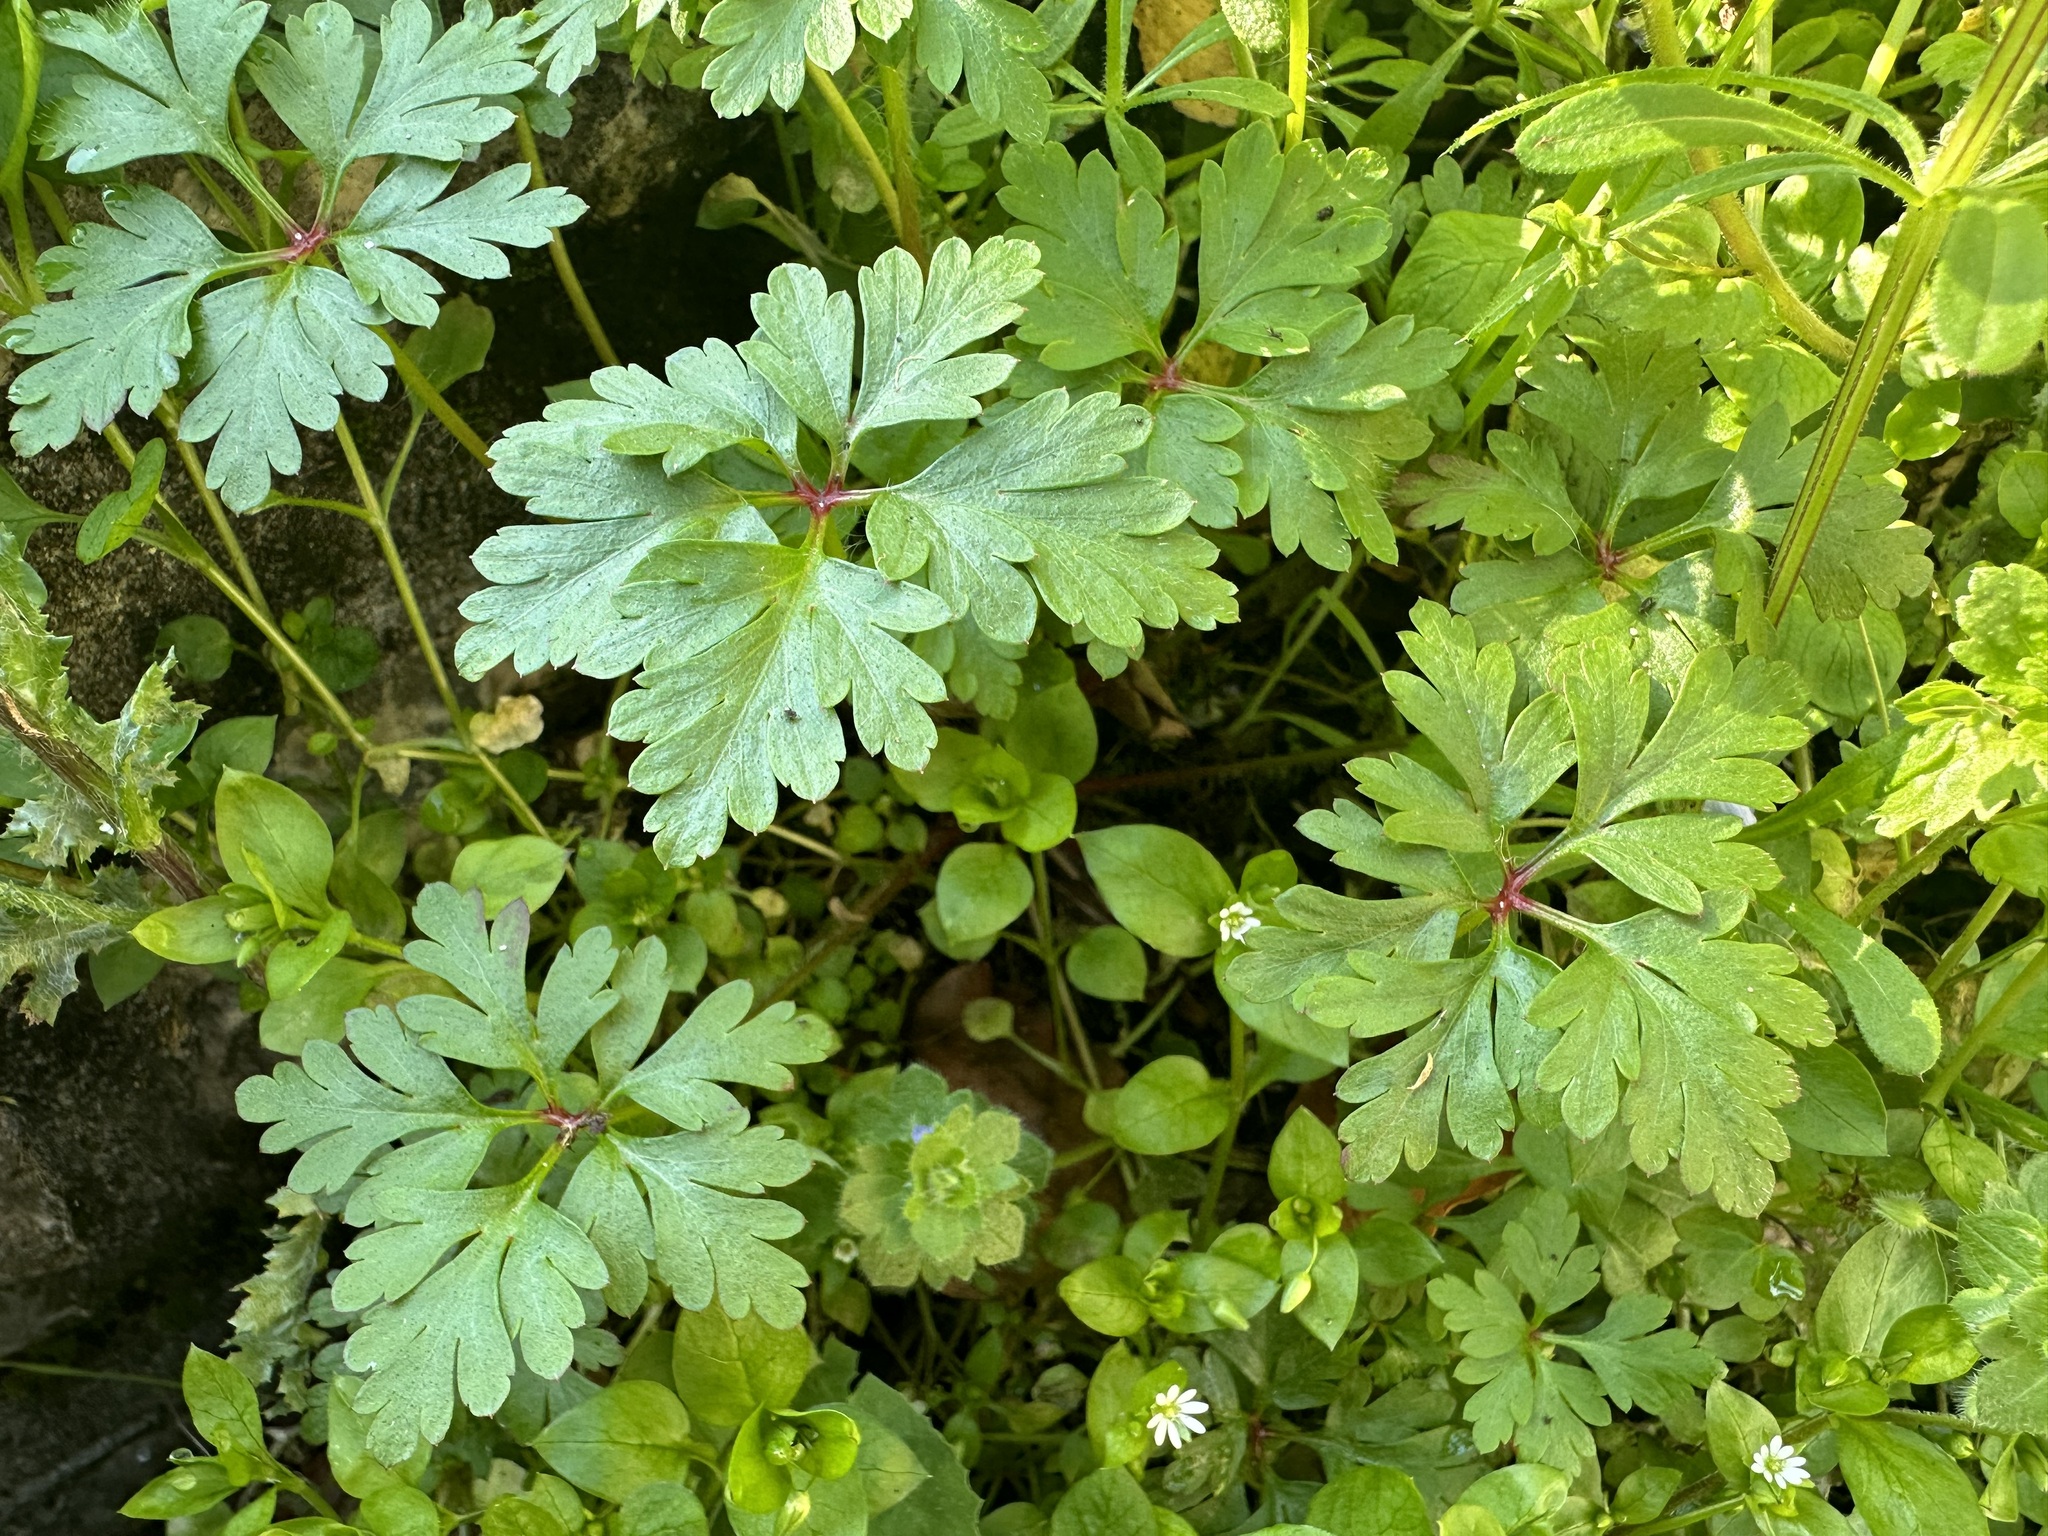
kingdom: Plantae
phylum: Tracheophyta
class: Magnoliopsida
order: Geraniales
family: Geraniaceae
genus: Geranium
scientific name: Geranium robertianum
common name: Herb-robert
